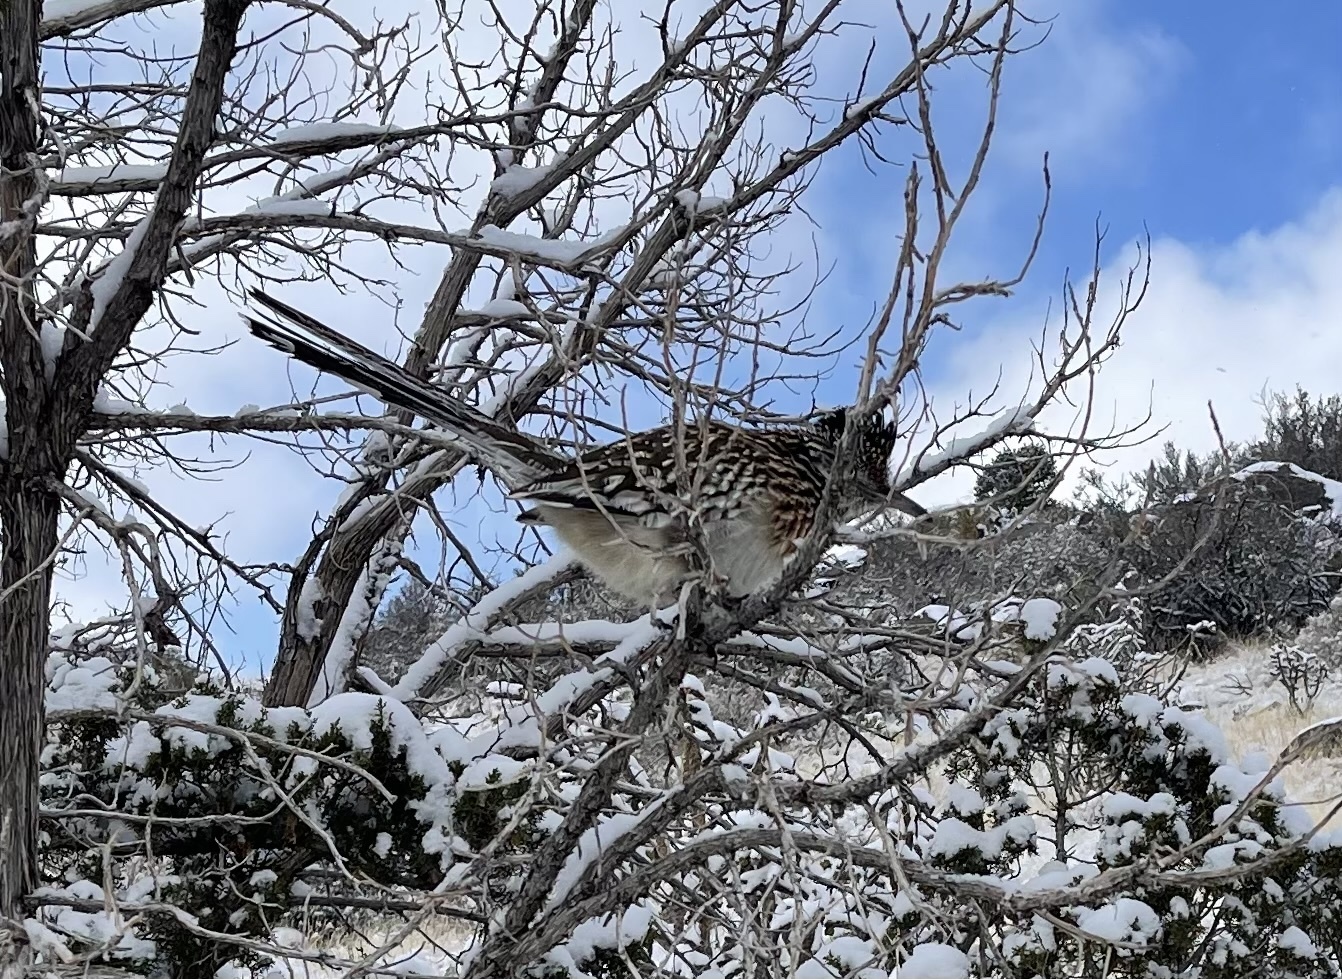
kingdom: Animalia
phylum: Chordata
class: Aves
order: Cuculiformes
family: Cuculidae
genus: Geococcyx
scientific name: Geococcyx californianus
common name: Greater roadrunner
